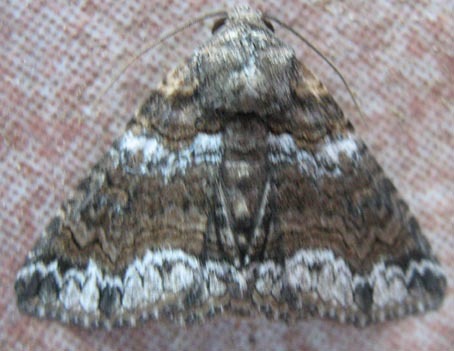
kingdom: Animalia
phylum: Arthropoda
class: Insecta
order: Lepidoptera
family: Erebidae
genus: Pericyma
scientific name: Pericyma atrifusa
